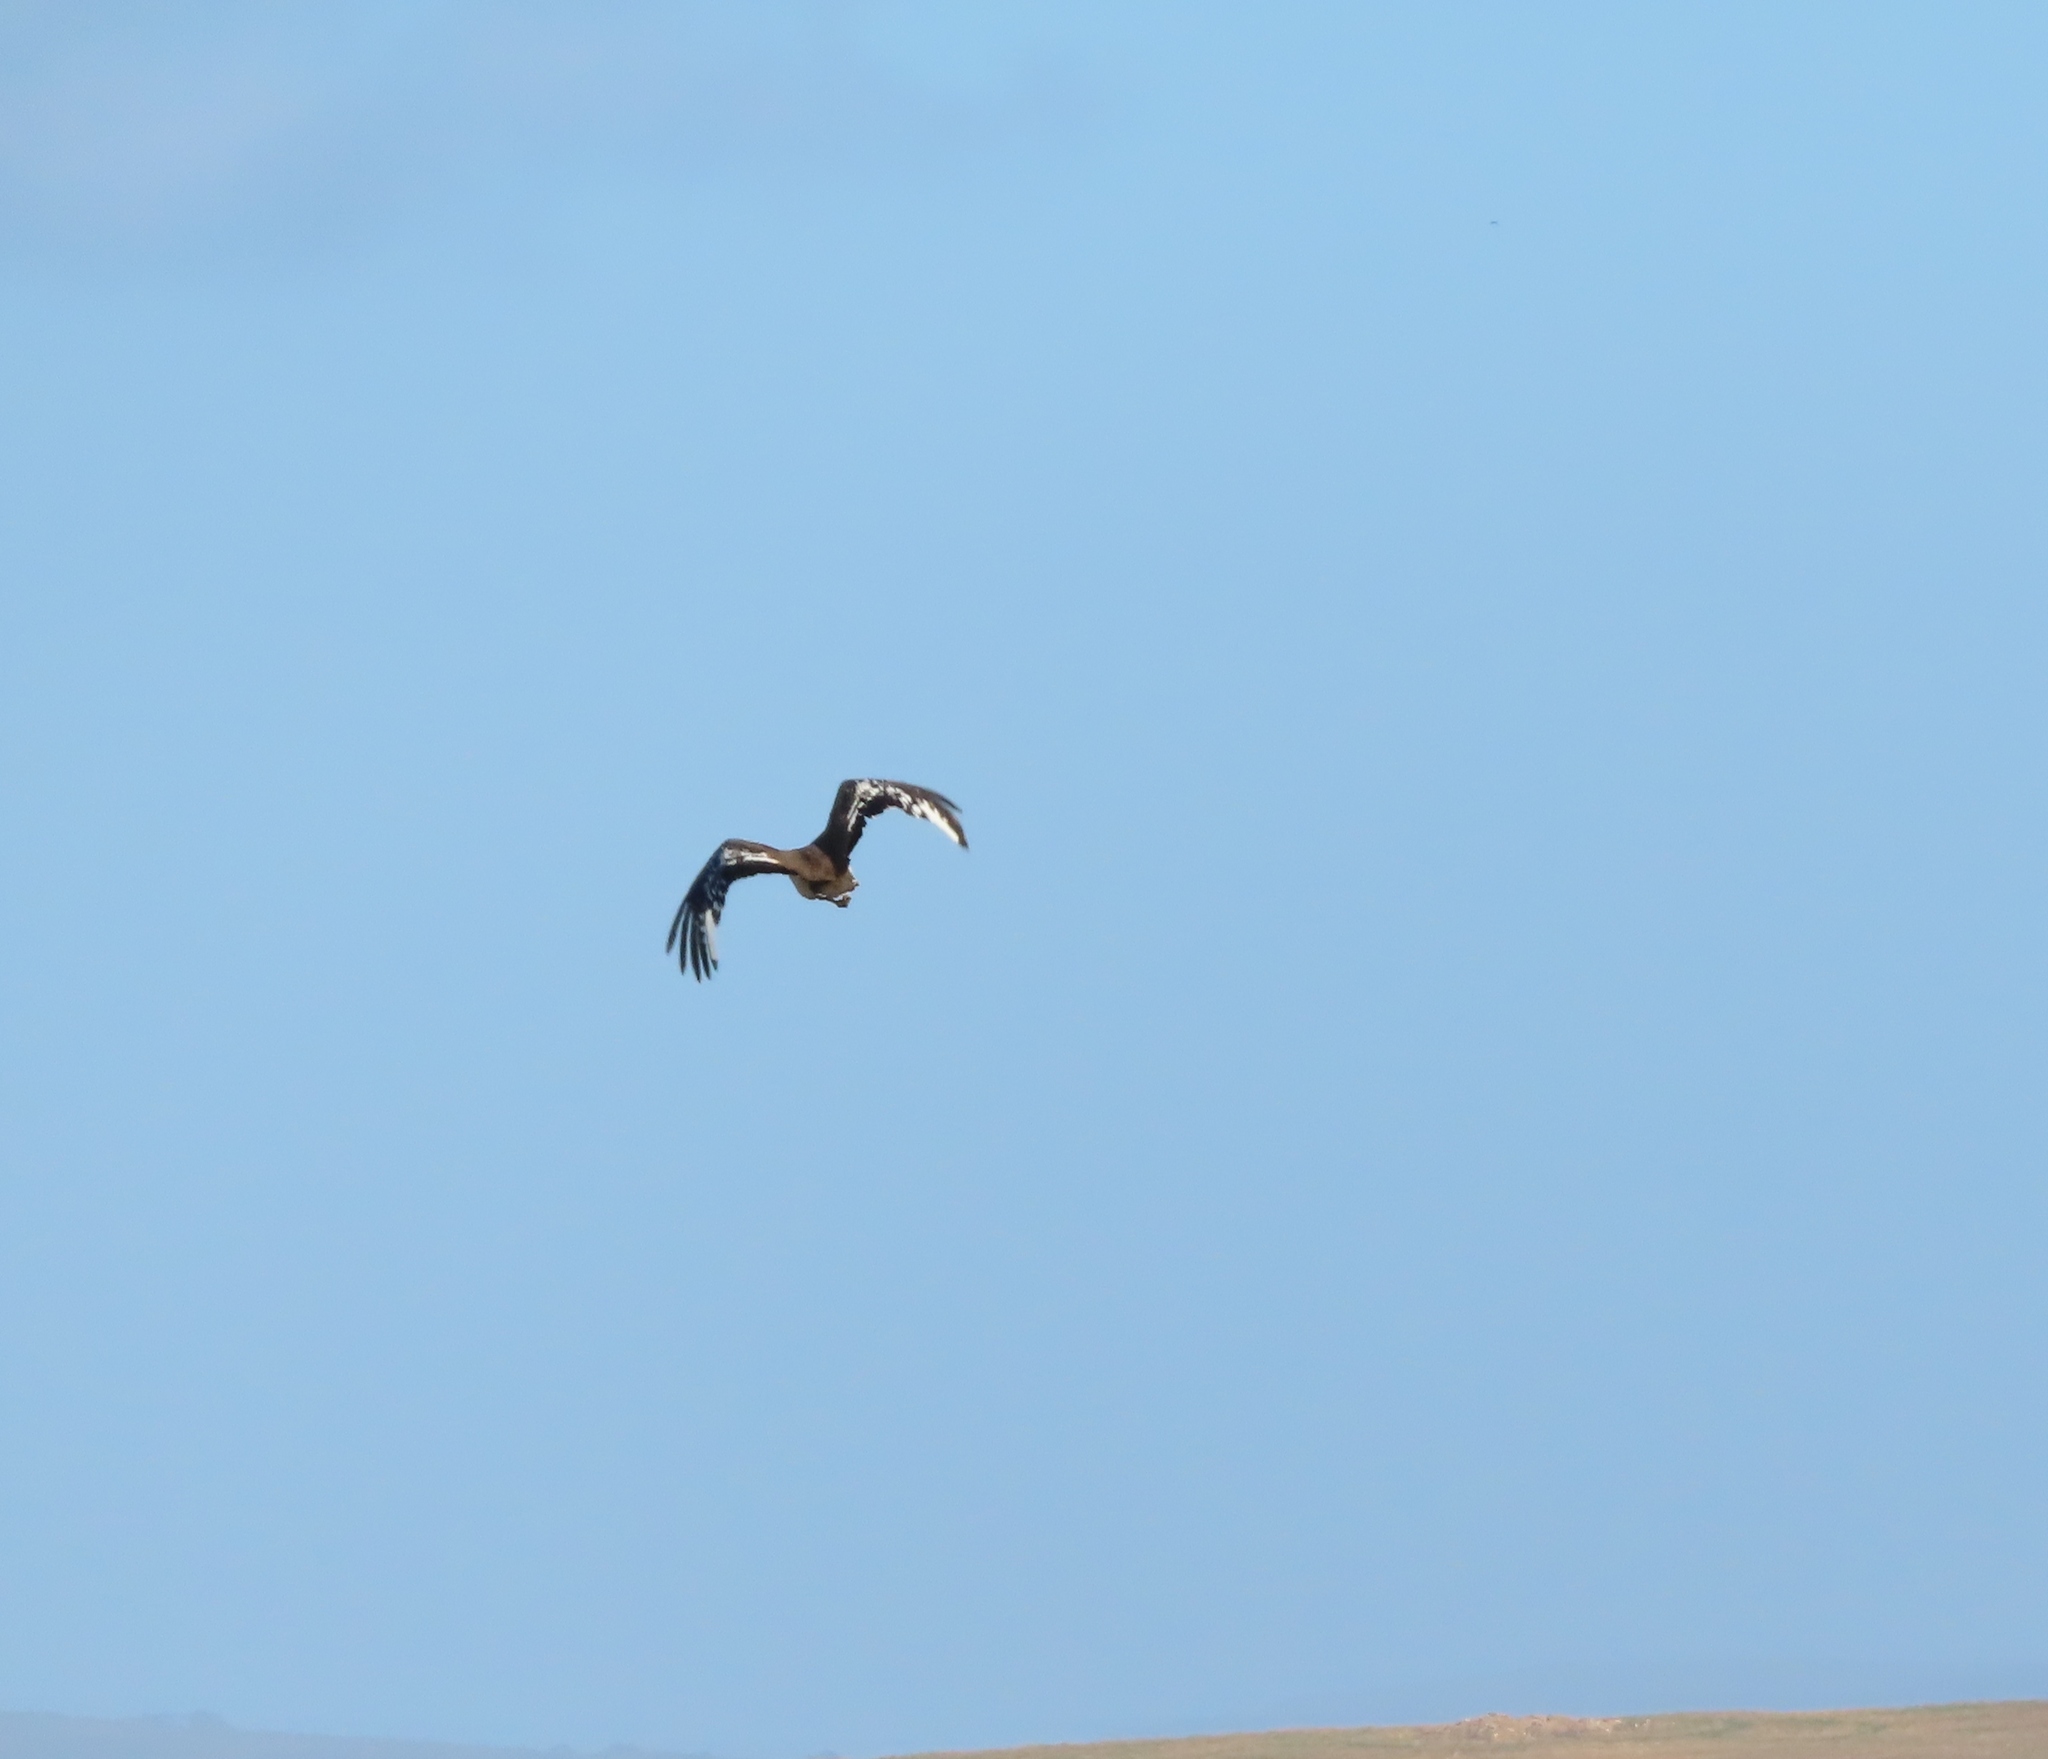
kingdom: Animalia
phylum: Chordata
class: Aves
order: Otidiformes
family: Otididae
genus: Neotis
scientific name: Neotis denhami
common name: Denham's bustard
